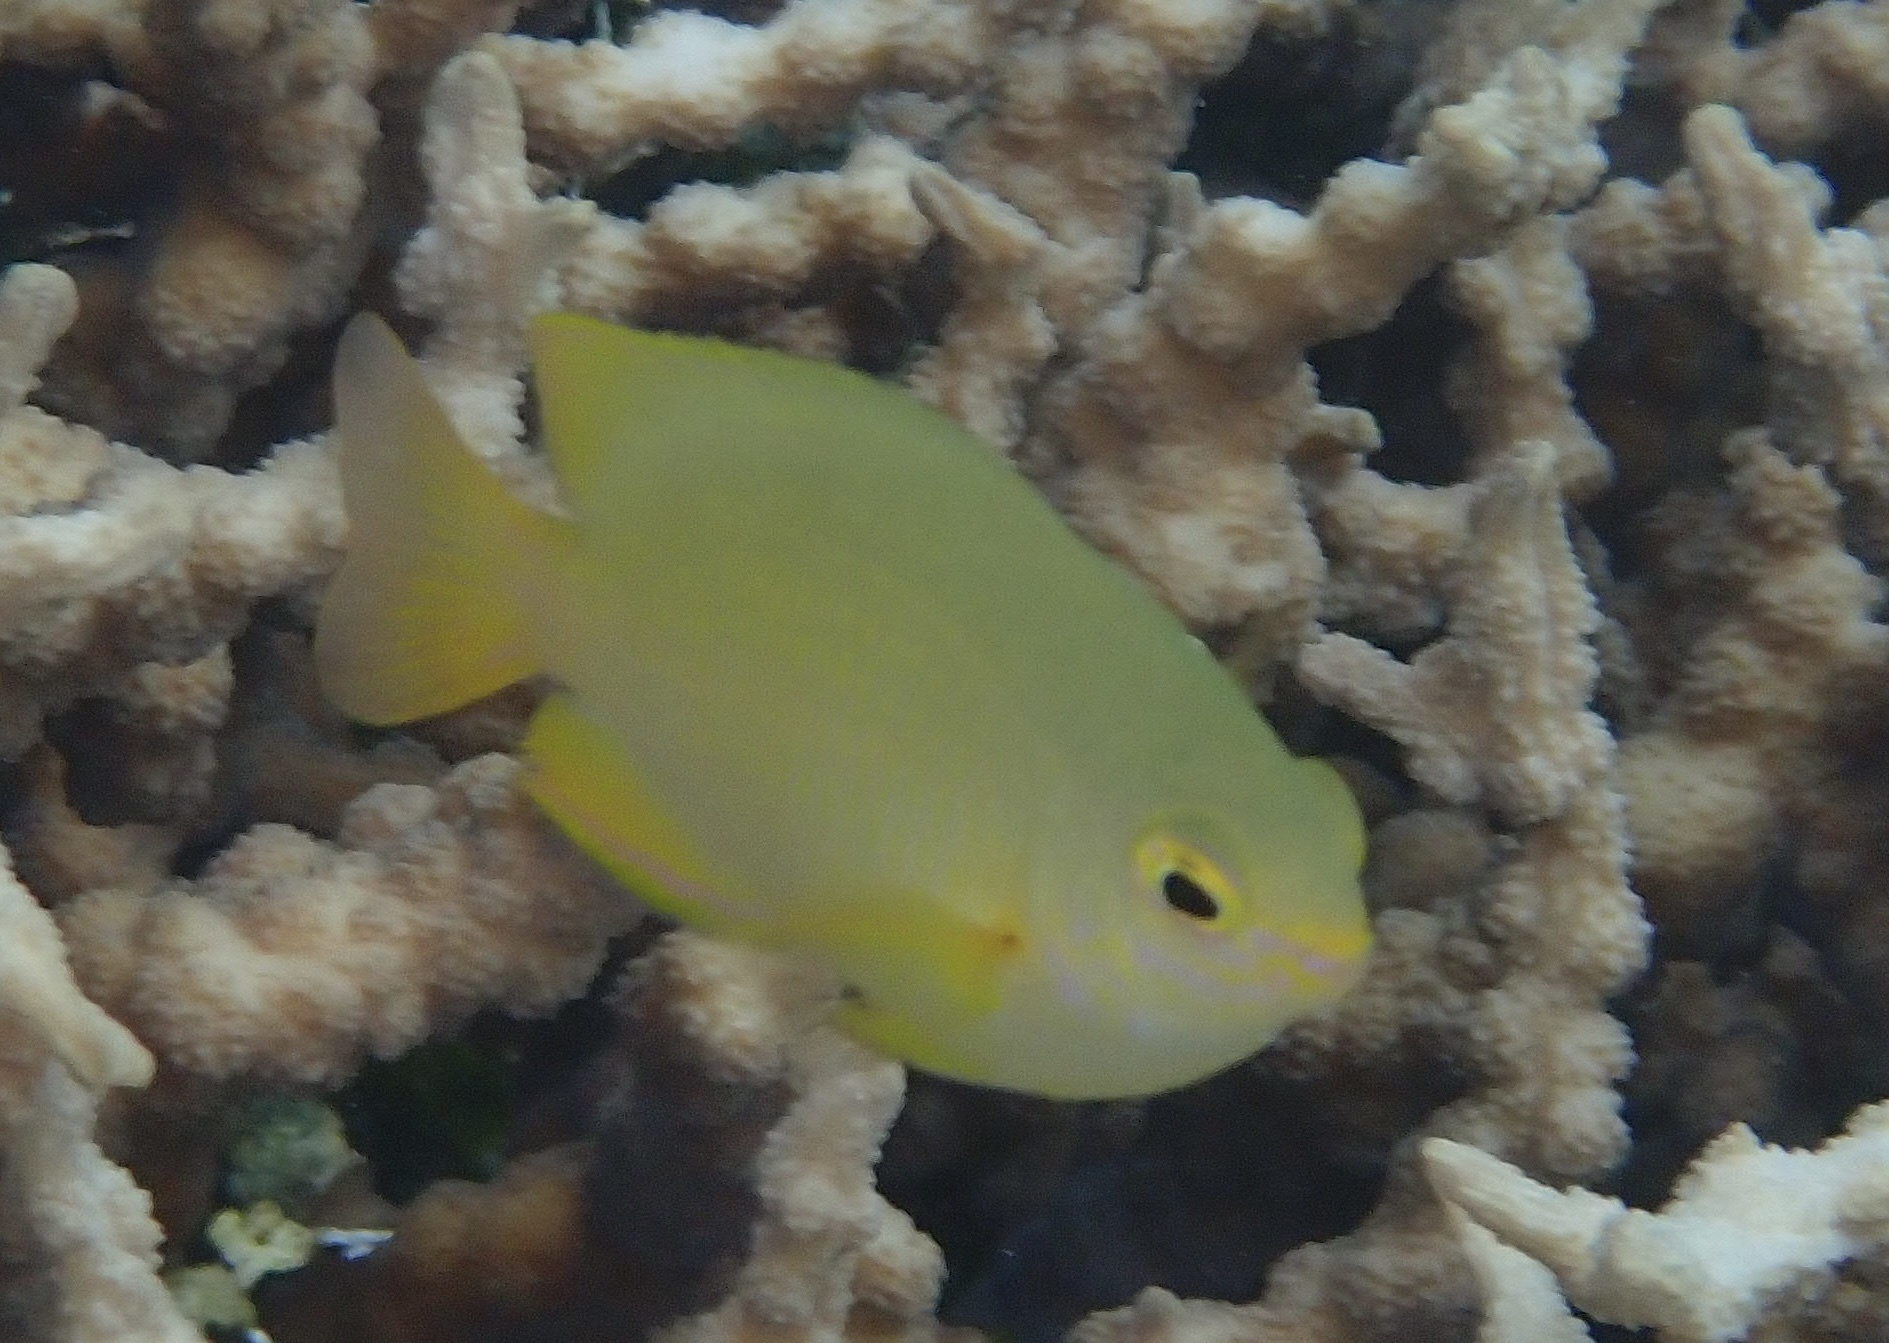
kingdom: Animalia
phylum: Chordata
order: Perciformes
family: Pomacentridae
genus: Pomacentrus
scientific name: Pomacentrus moluccensis
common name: Lemon damsel
